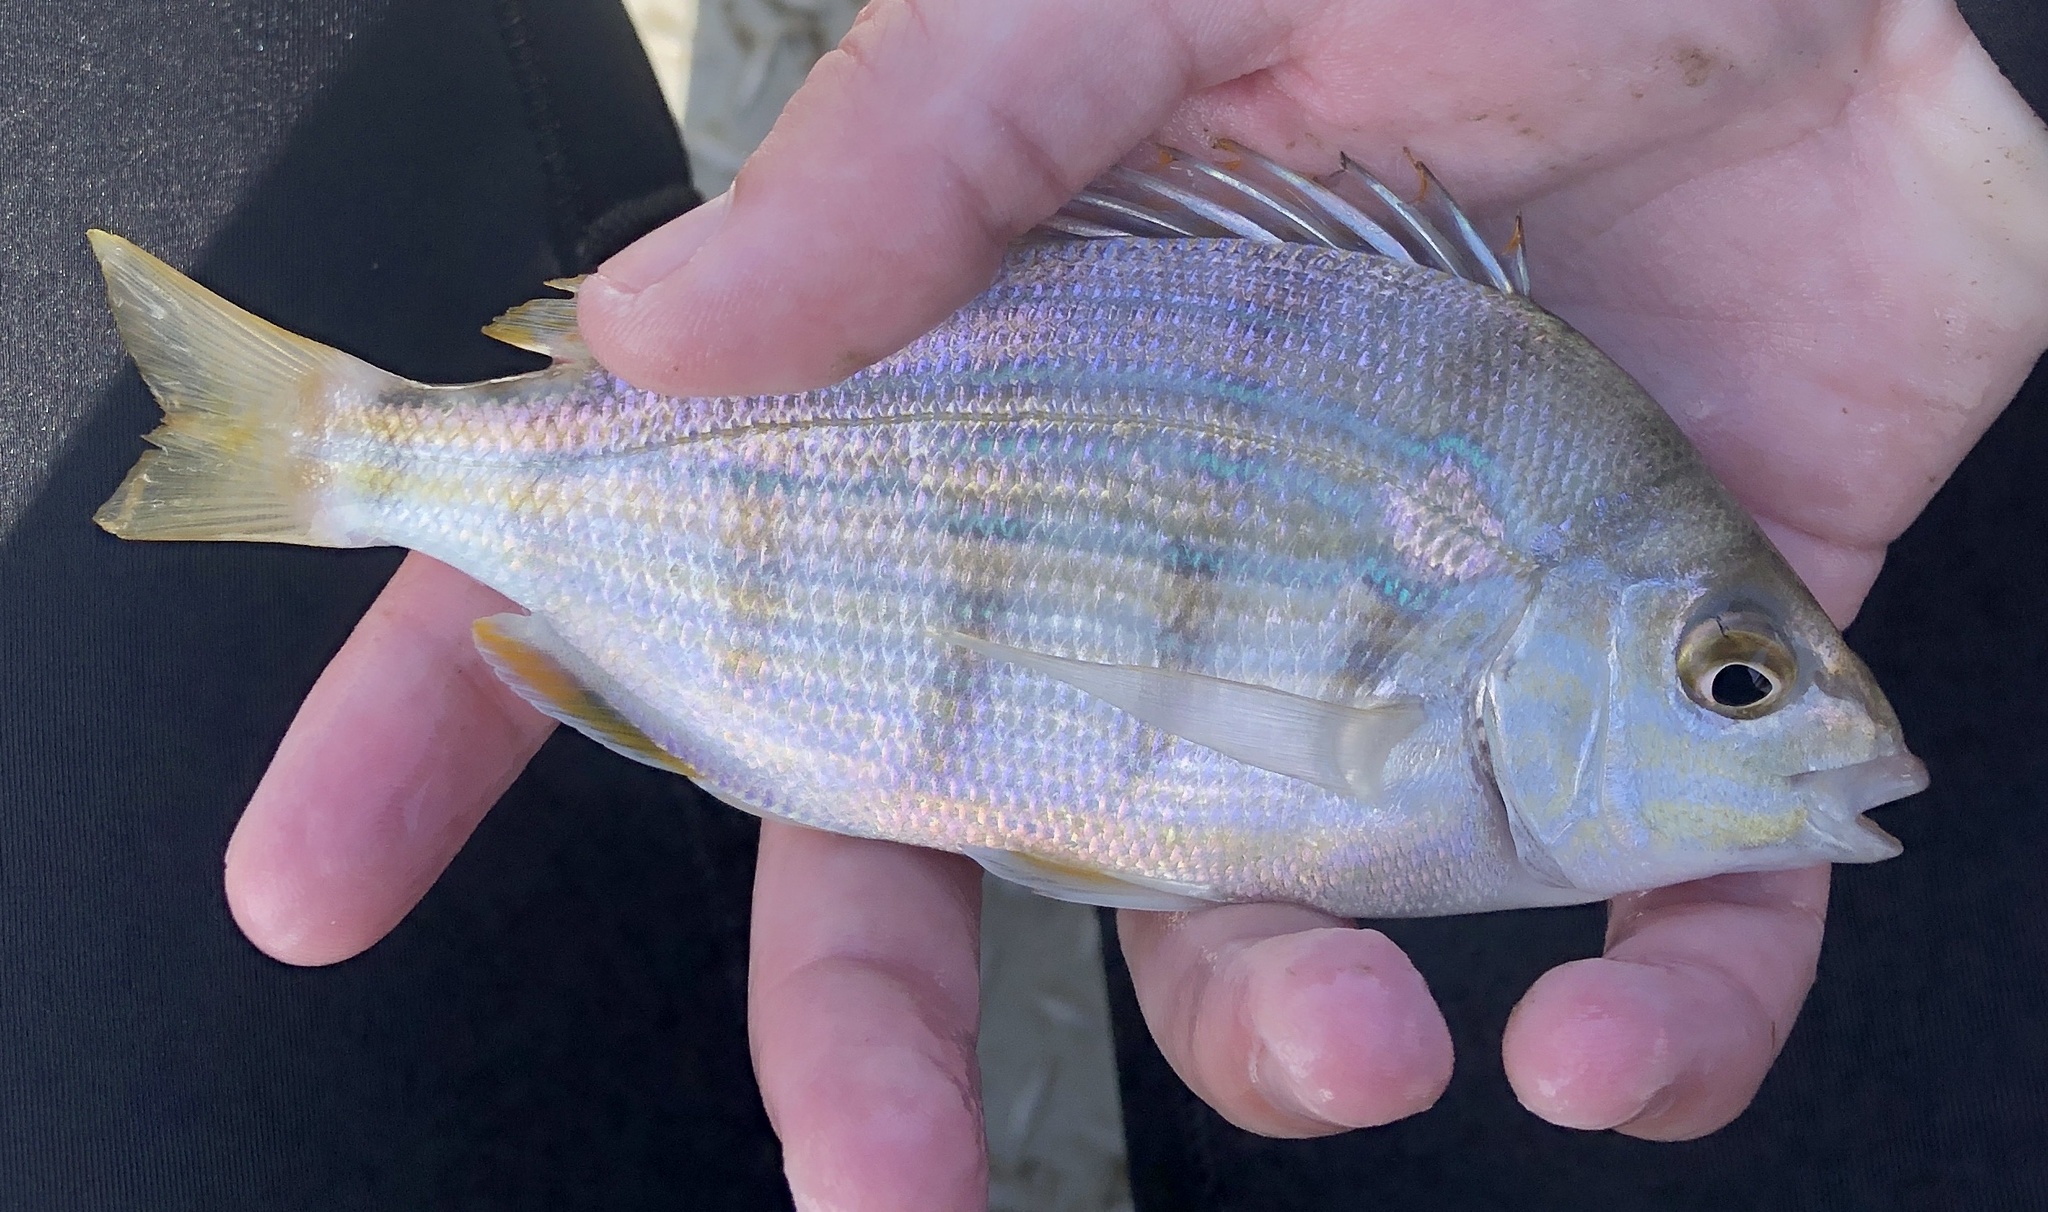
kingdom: Animalia
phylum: Chordata
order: Perciformes
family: Sparidae
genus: Lagodon
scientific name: Lagodon rhomboides
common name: Pinfish
